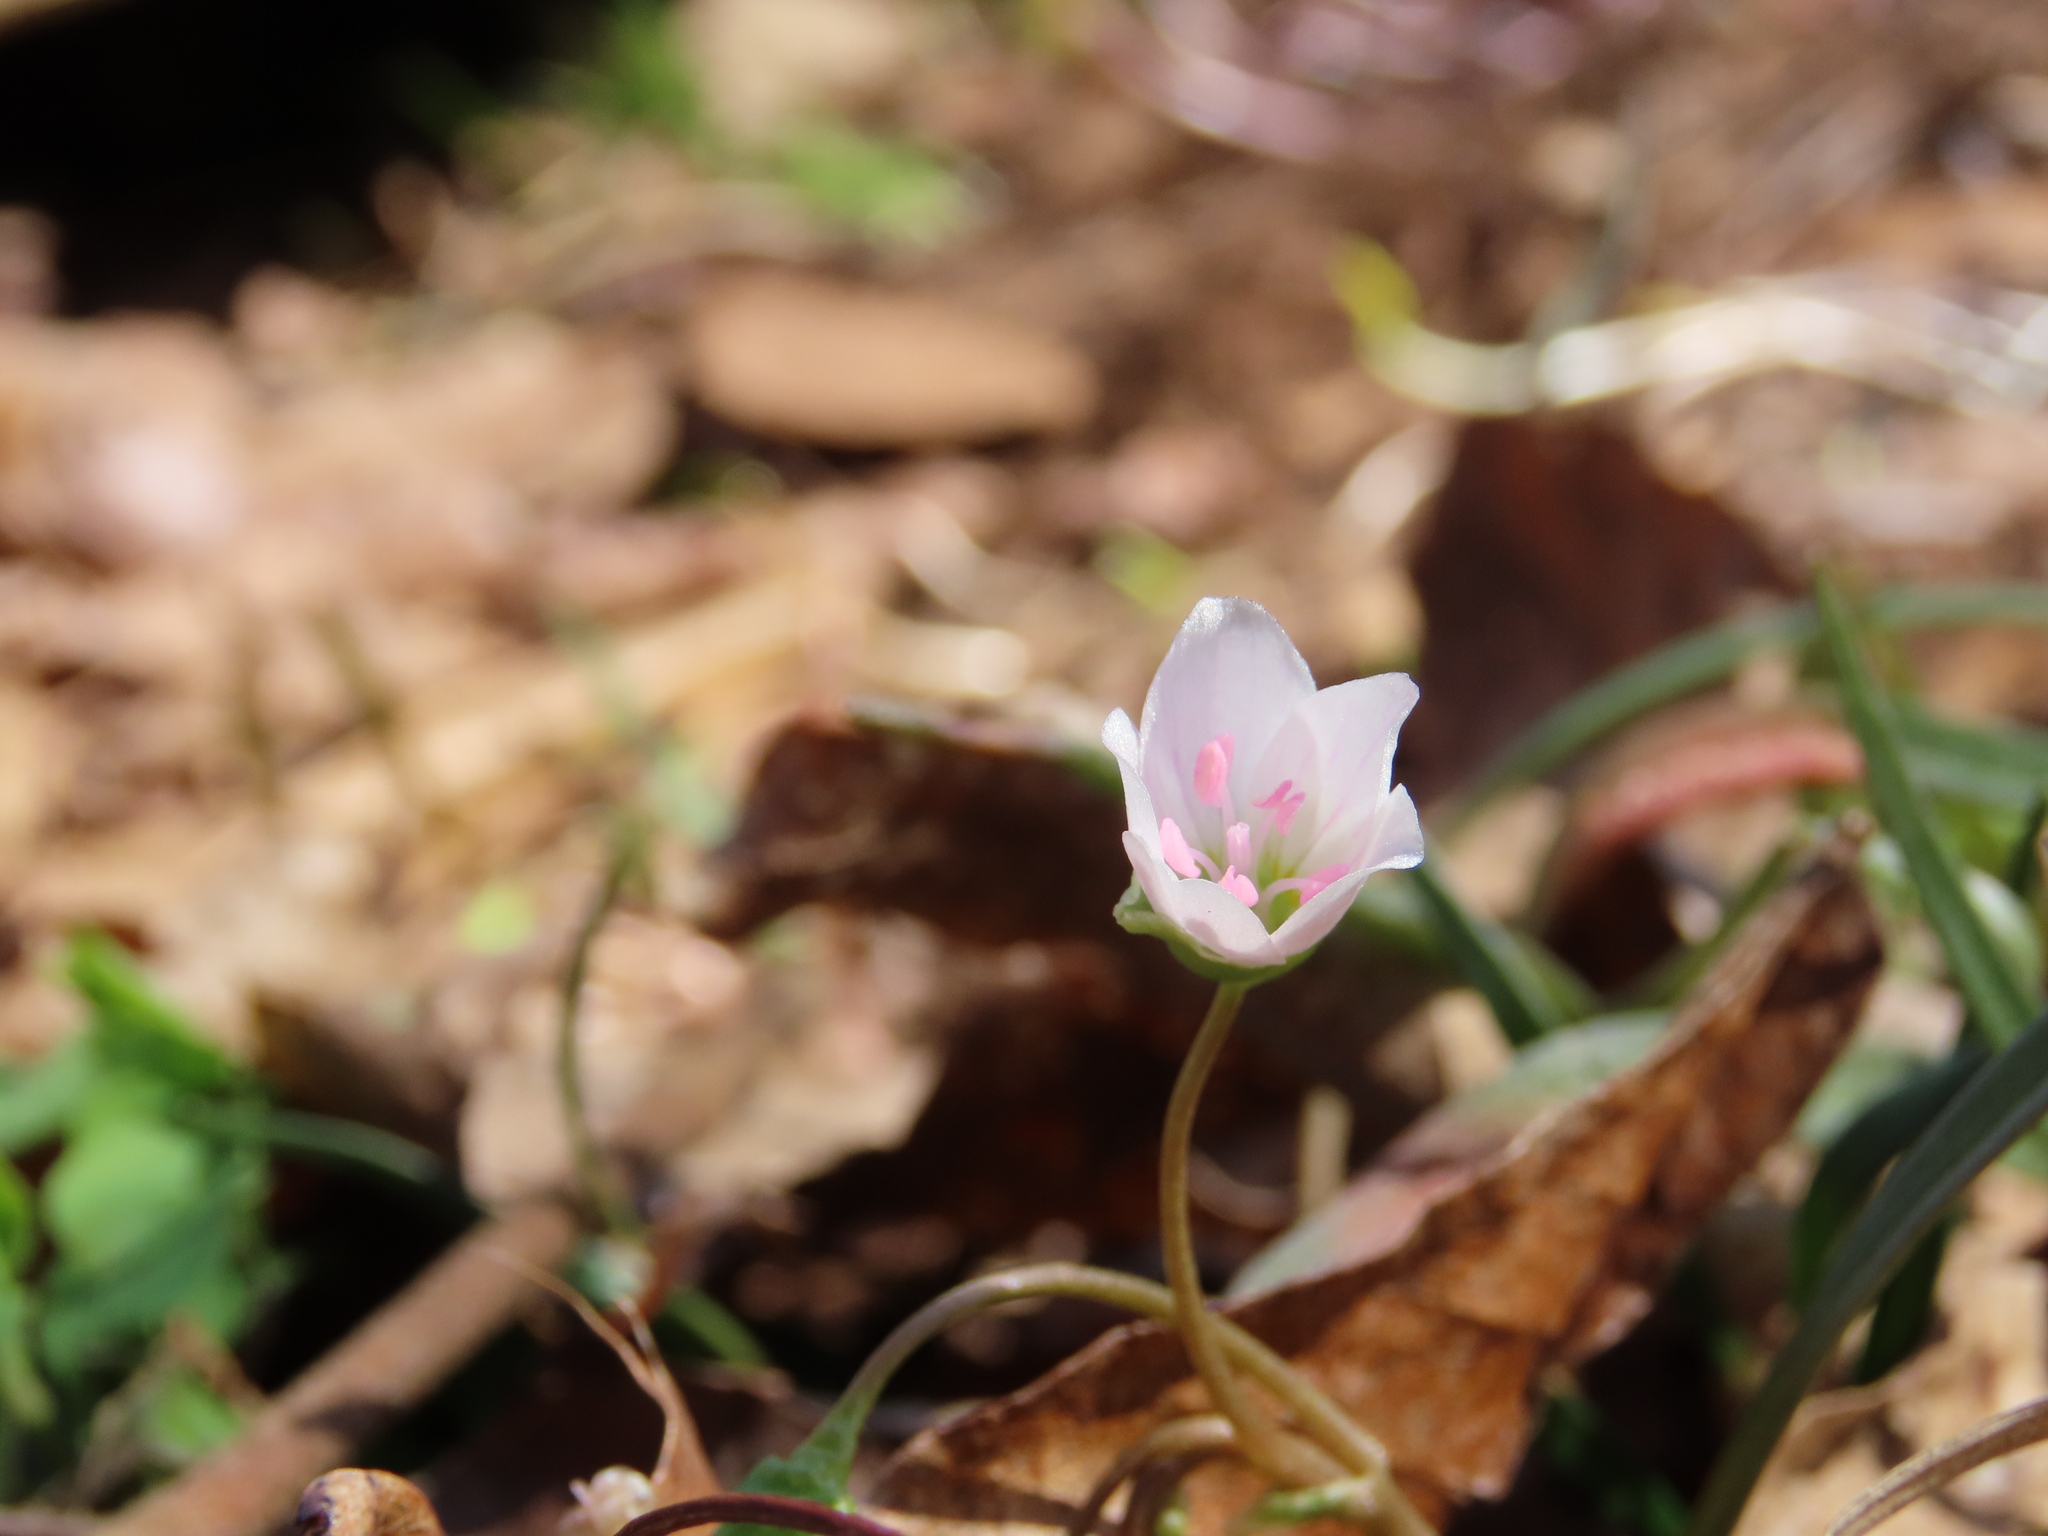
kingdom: Plantae
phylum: Tracheophyta
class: Magnoliopsida
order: Caryophyllales
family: Montiaceae
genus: Claytonia
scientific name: Claytonia virginica
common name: Virginia springbeauty
